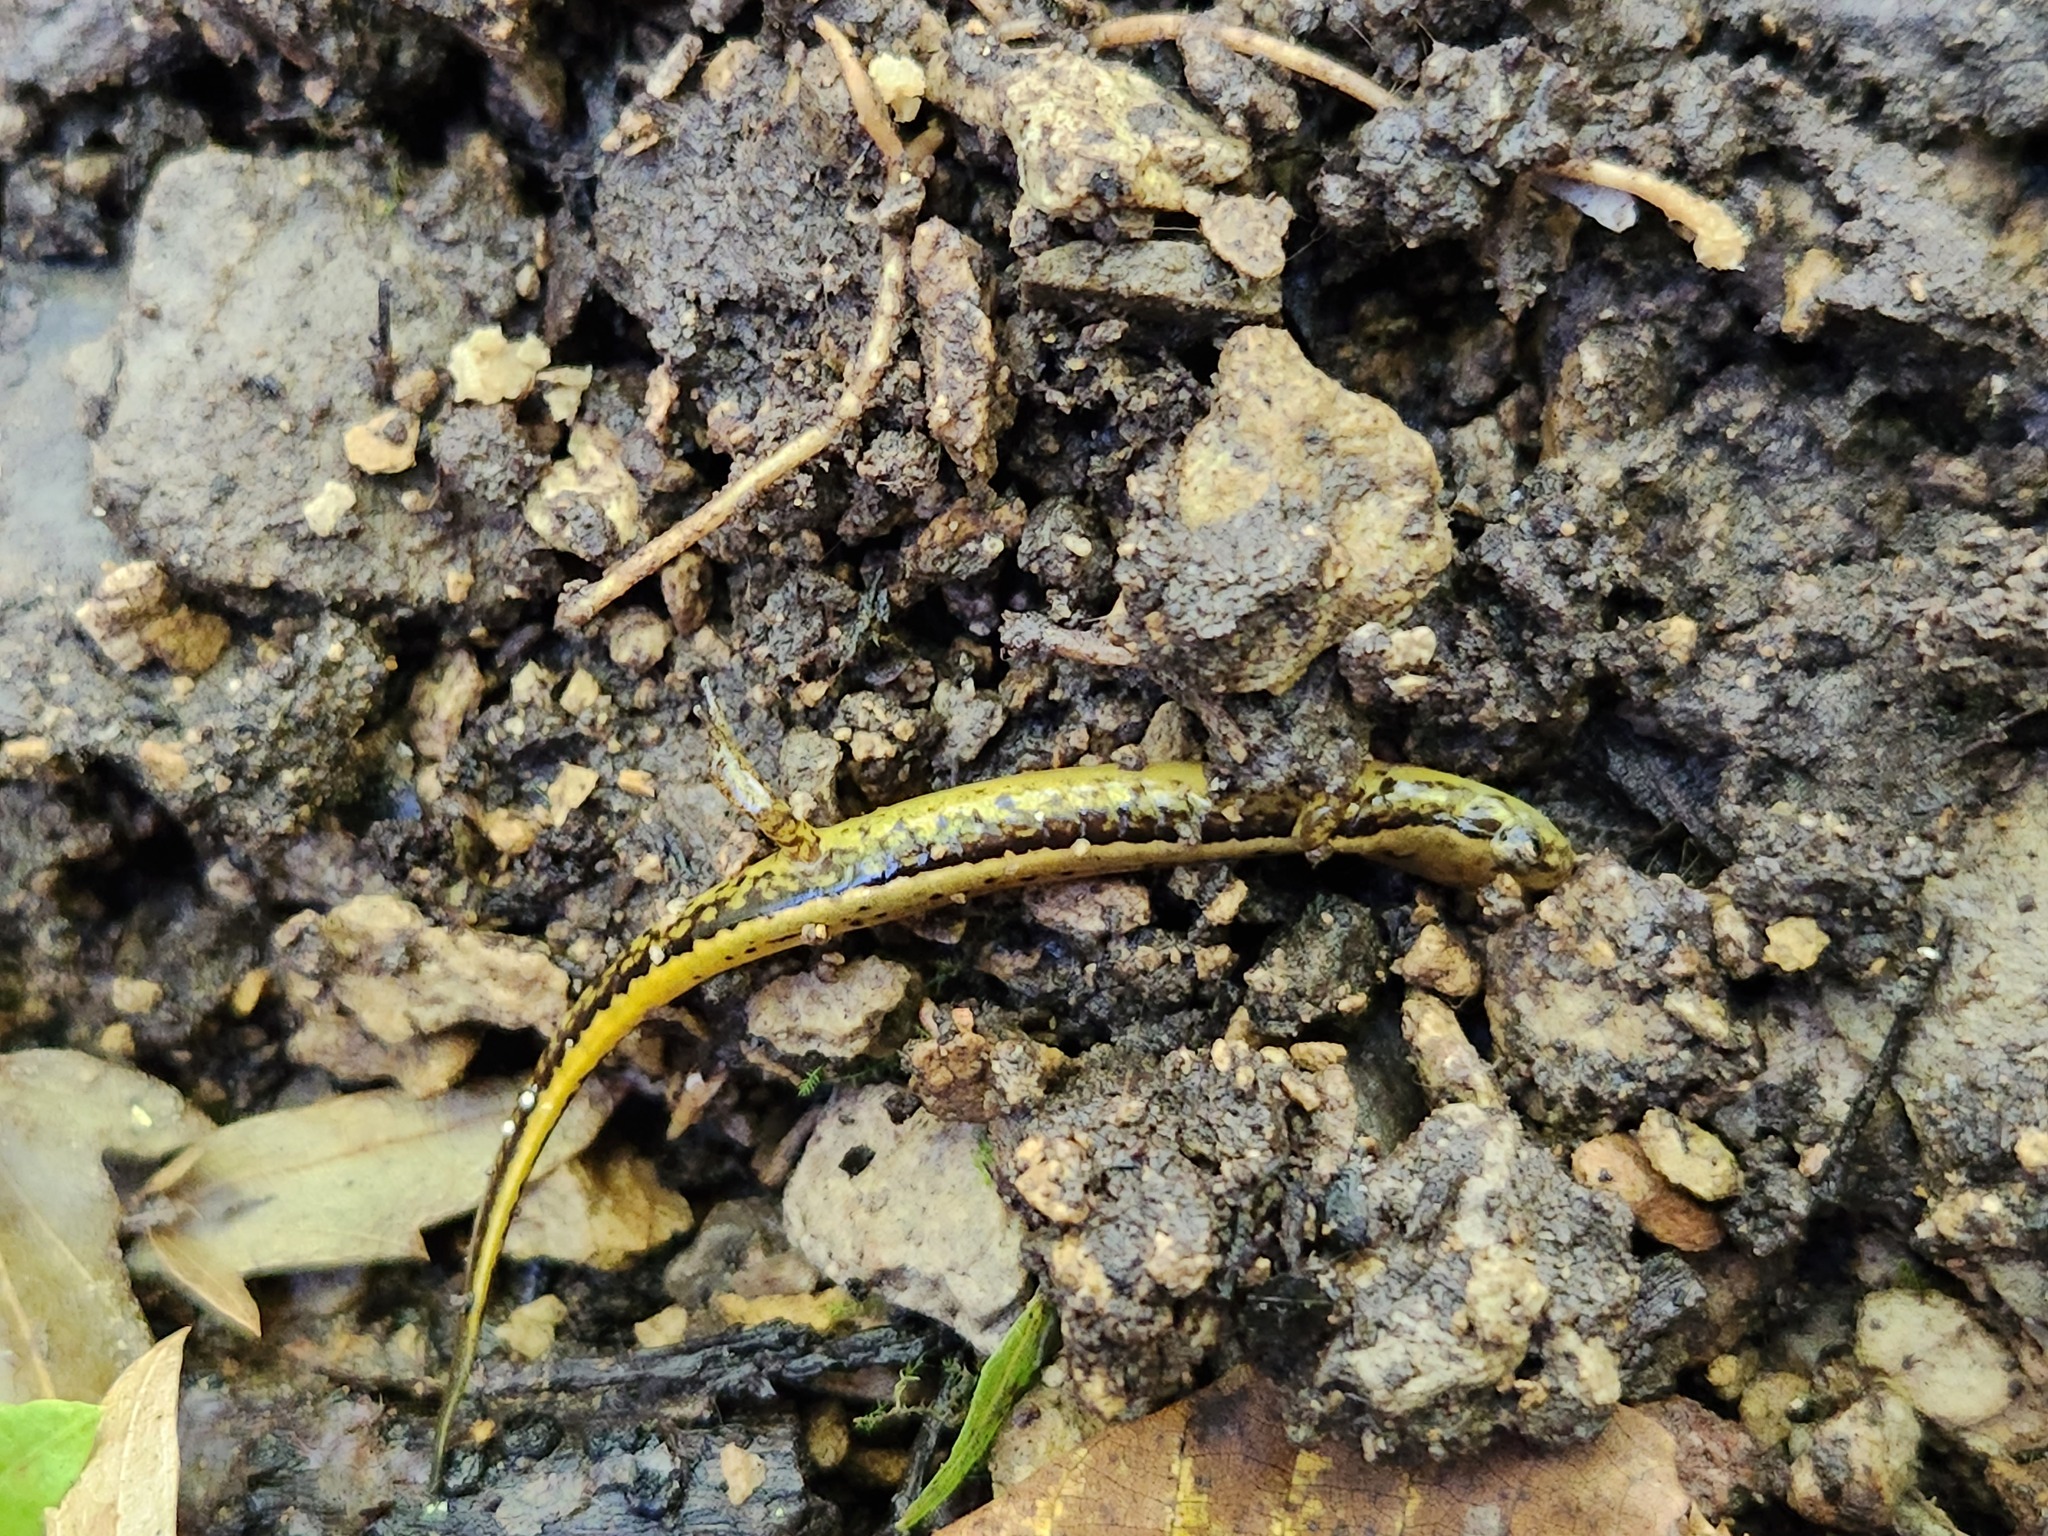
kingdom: Animalia
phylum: Chordata
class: Amphibia
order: Caudata
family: Plethodontidae
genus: Eurycea
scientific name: Eurycea cirrigera
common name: Southern two-lined salamander
